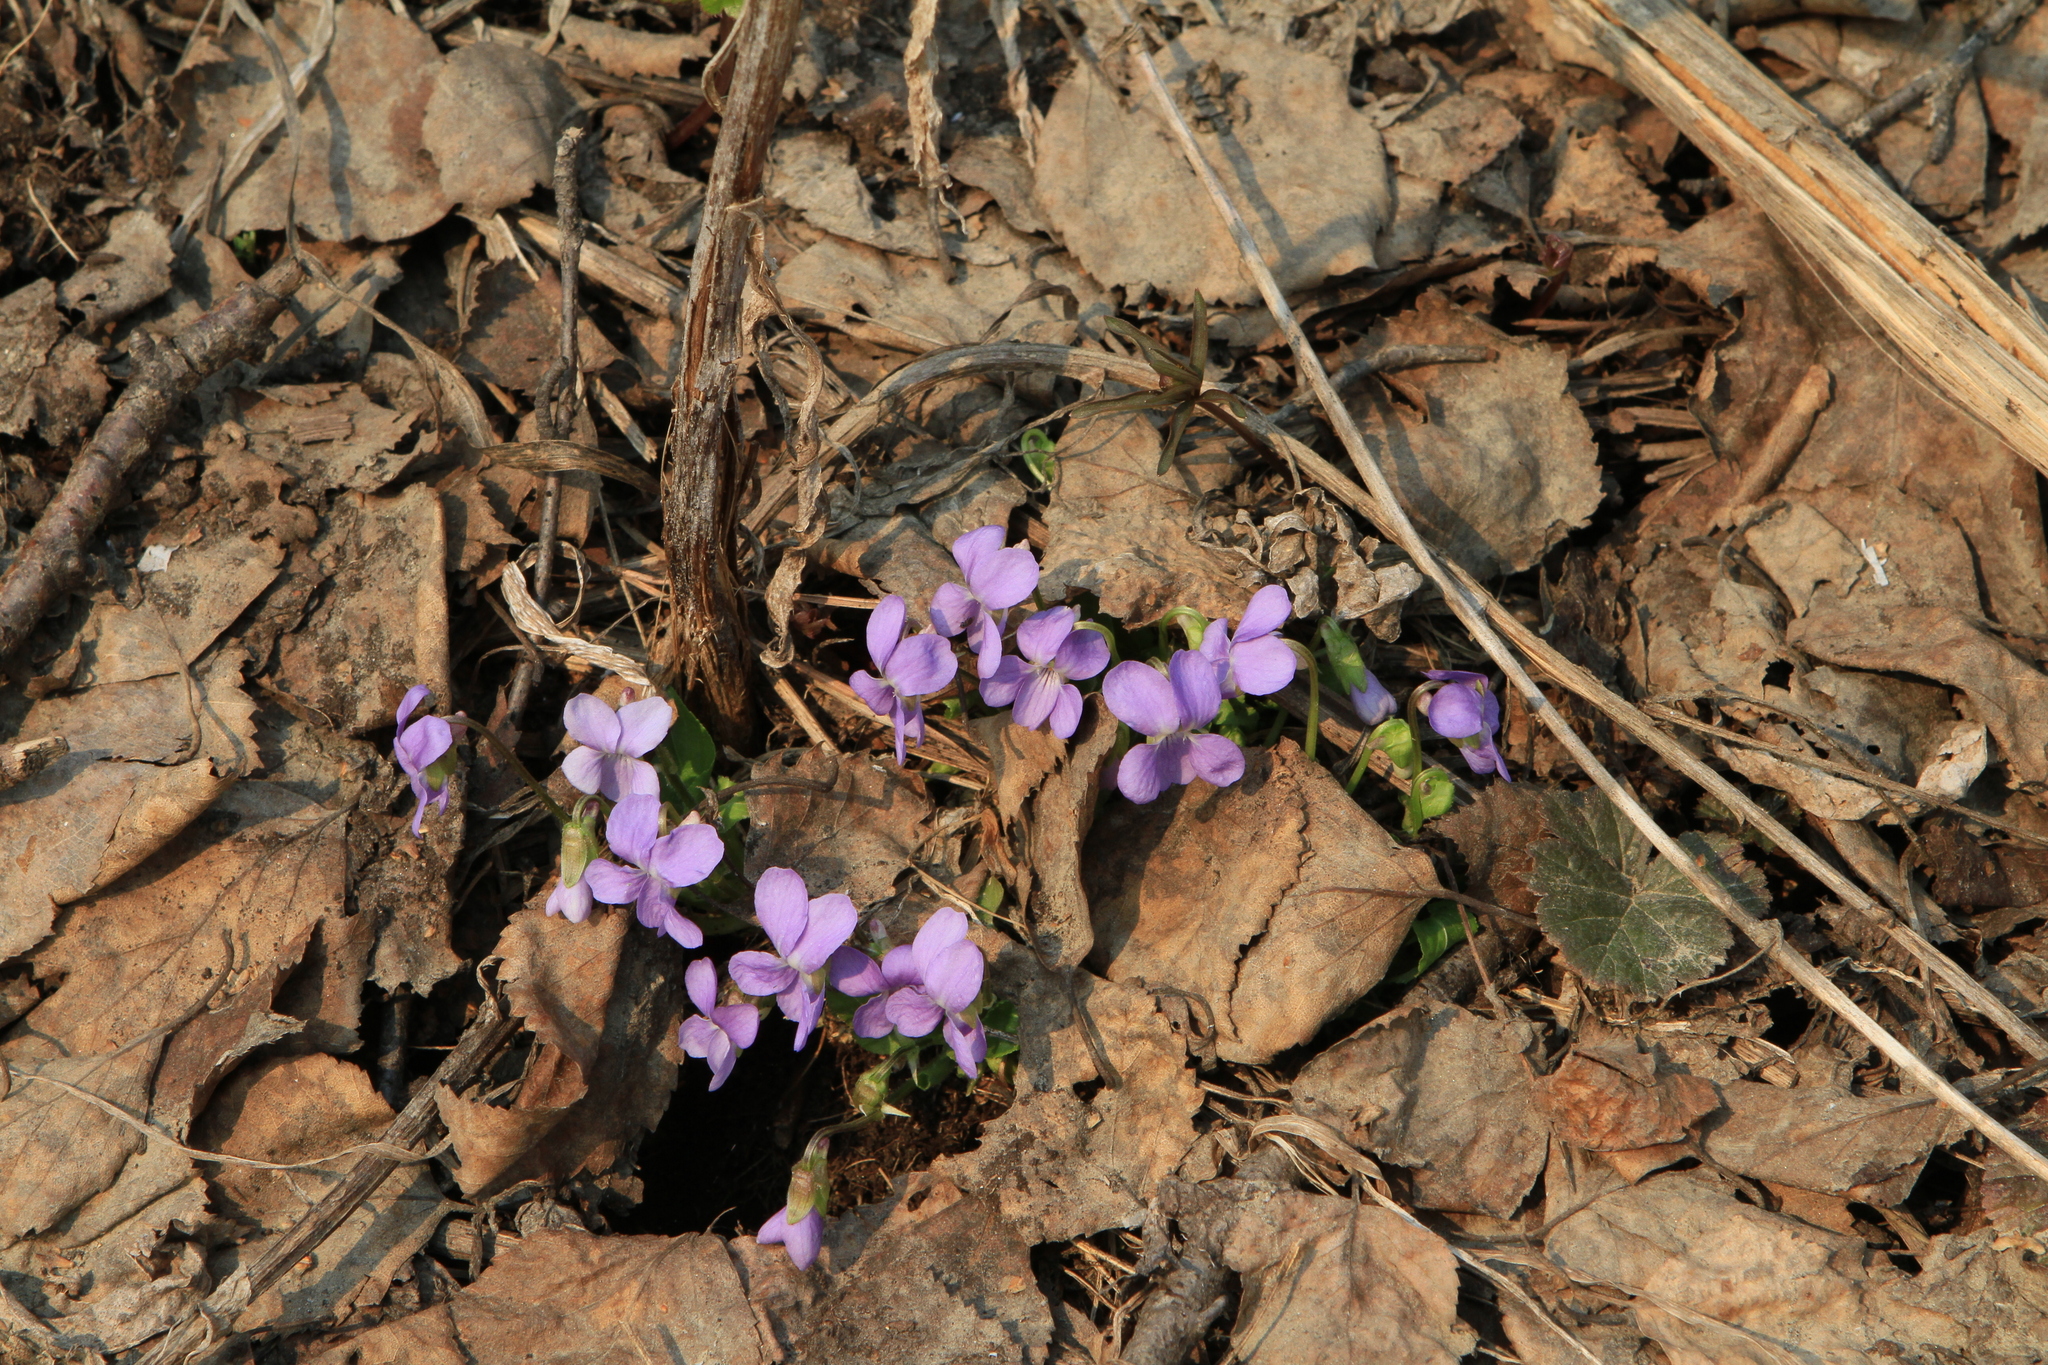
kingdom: Plantae
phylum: Tracheophyta
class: Magnoliopsida
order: Malpighiales
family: Violaceae
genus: Viola
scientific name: Viola hirta
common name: Hairy violet
